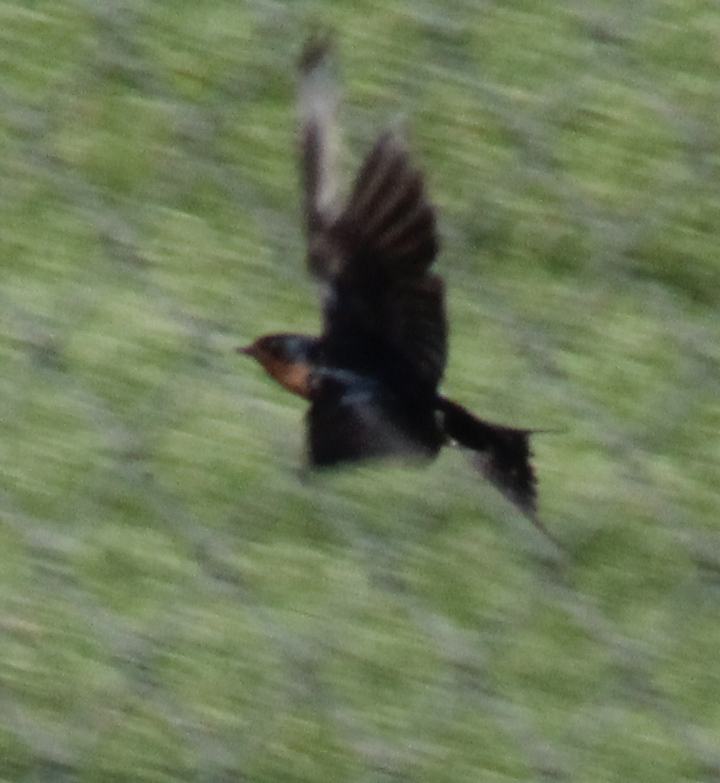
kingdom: Animalia
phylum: Chordata
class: Aves
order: Passeriformes
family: Hirundinidae
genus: Hirundo
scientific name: Hirundo rustica
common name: Barn swallow
